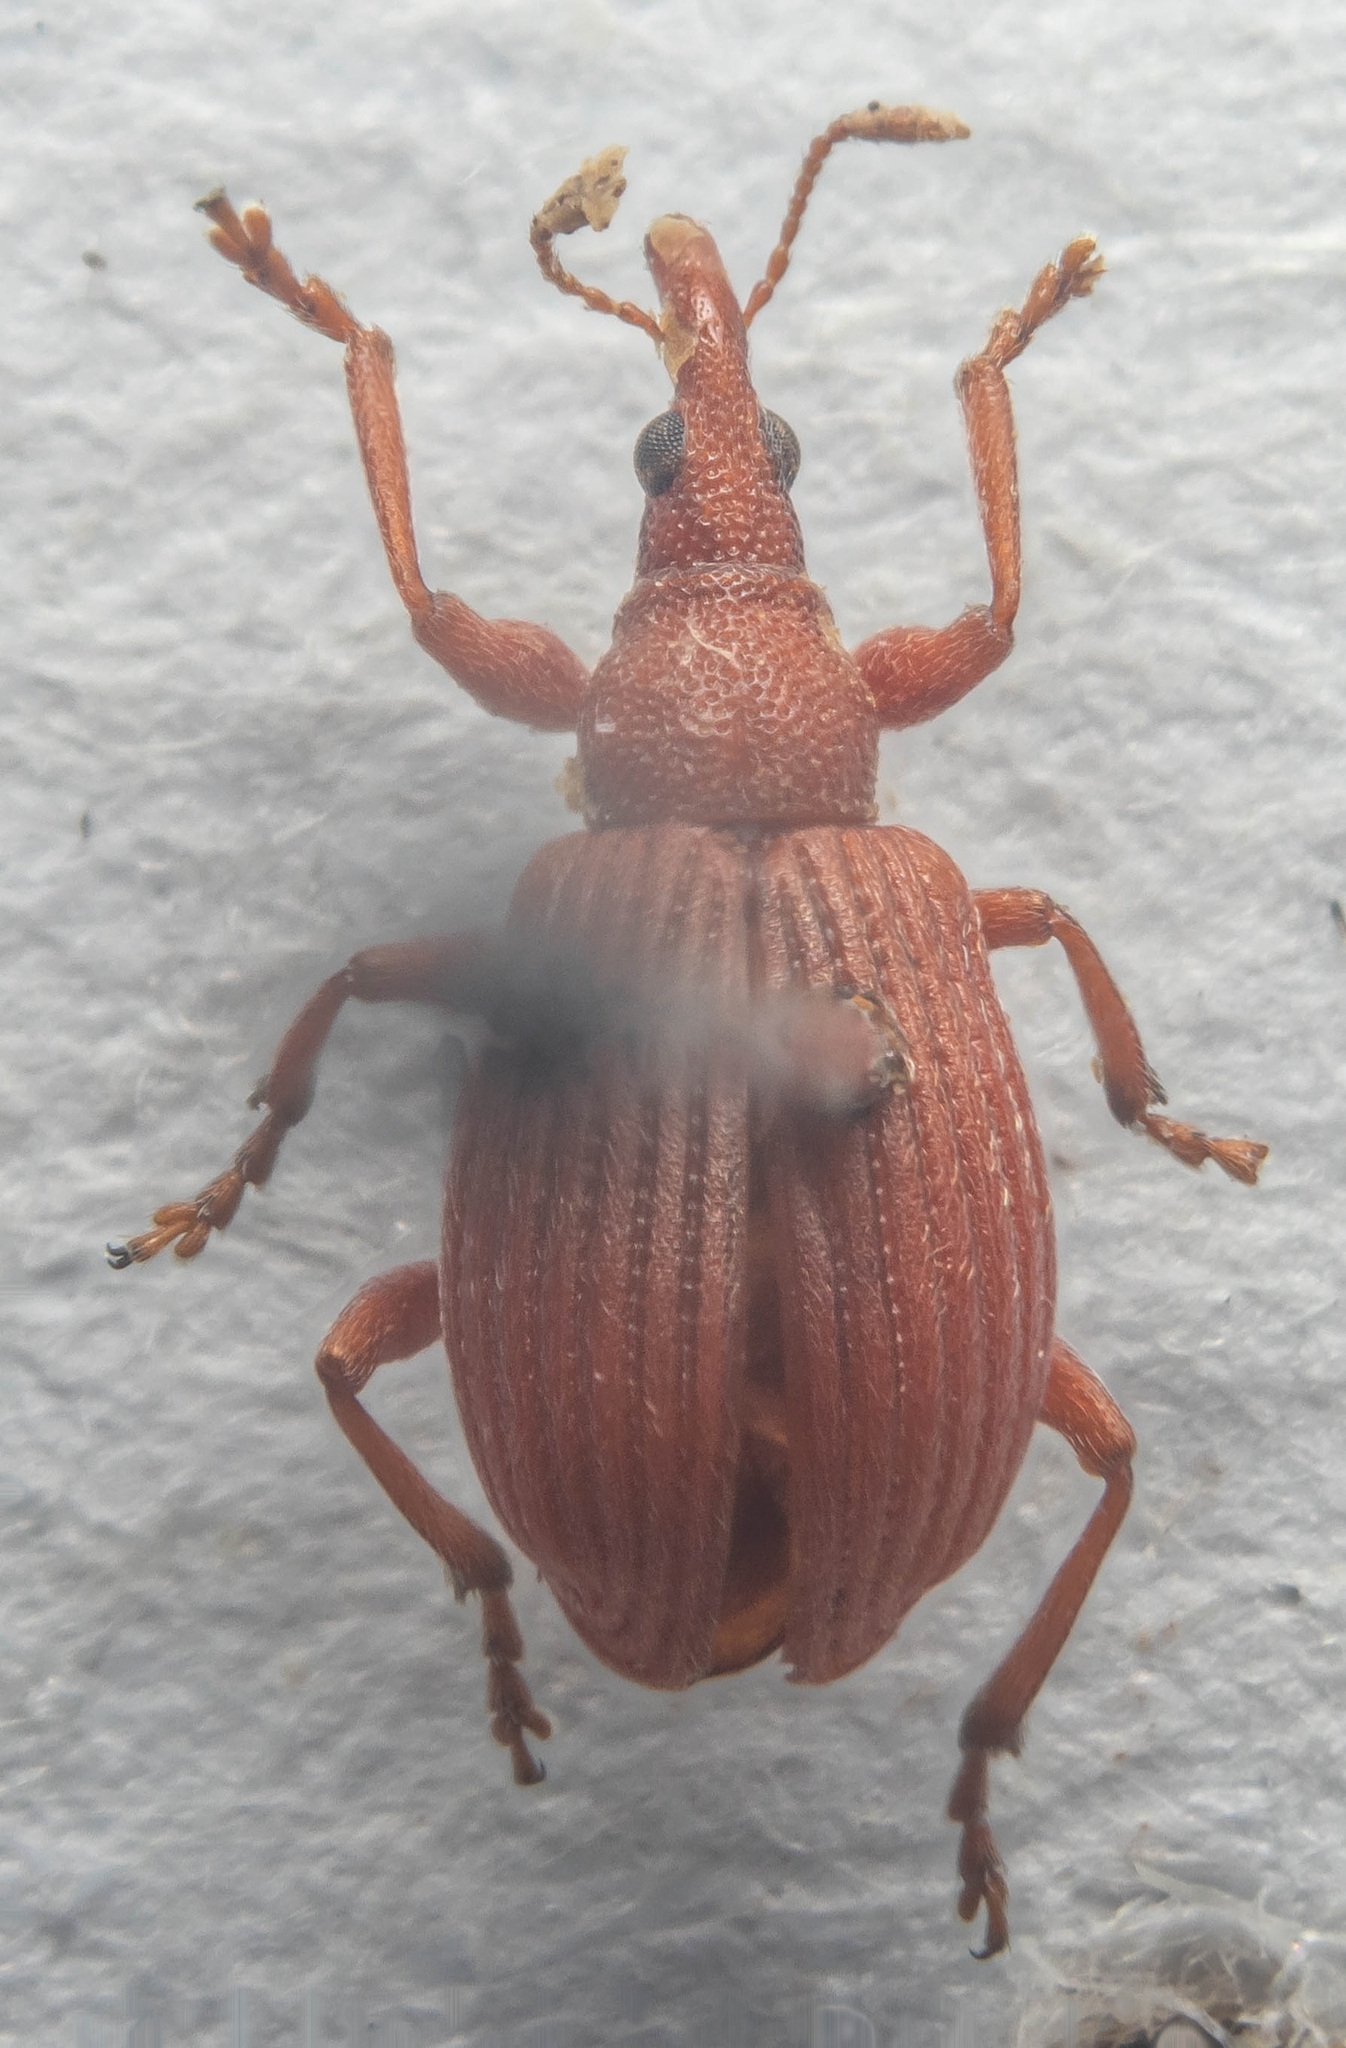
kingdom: Animalia
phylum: Arthropoda
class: Insecta
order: Coleoptera
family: Apionidae
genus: Apion
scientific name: Apion frumentarium
